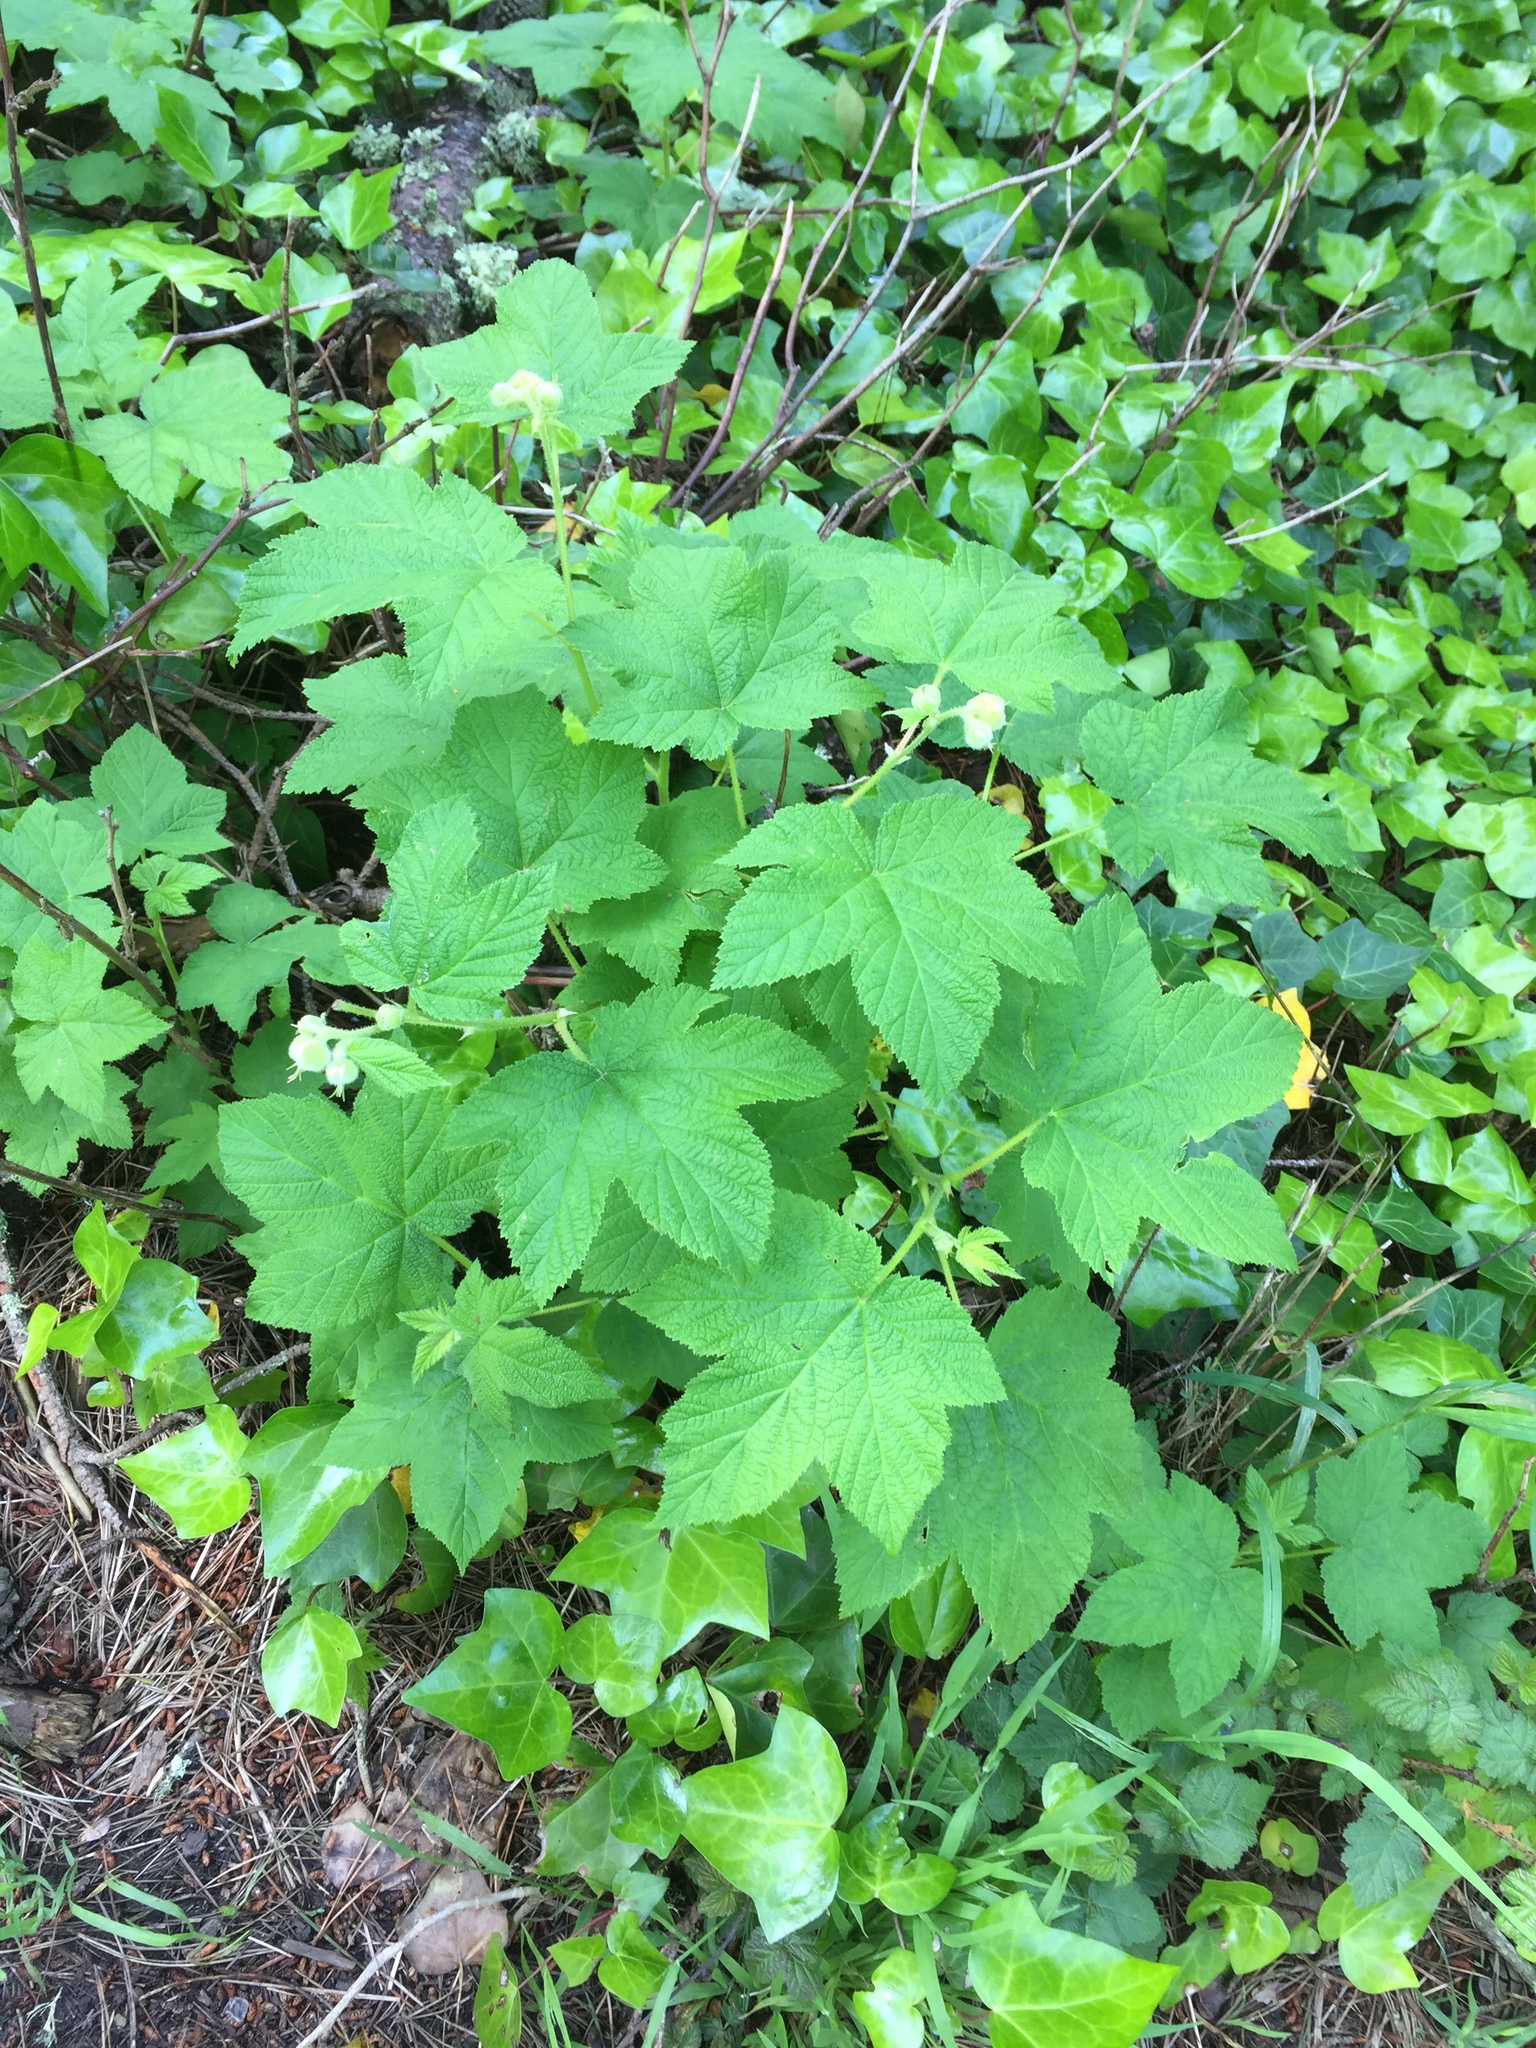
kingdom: Plantae
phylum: Tracheophyta
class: Magnoliopsida
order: Rosales
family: Rosaceae
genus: Rubus
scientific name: Rubus parviflorus
